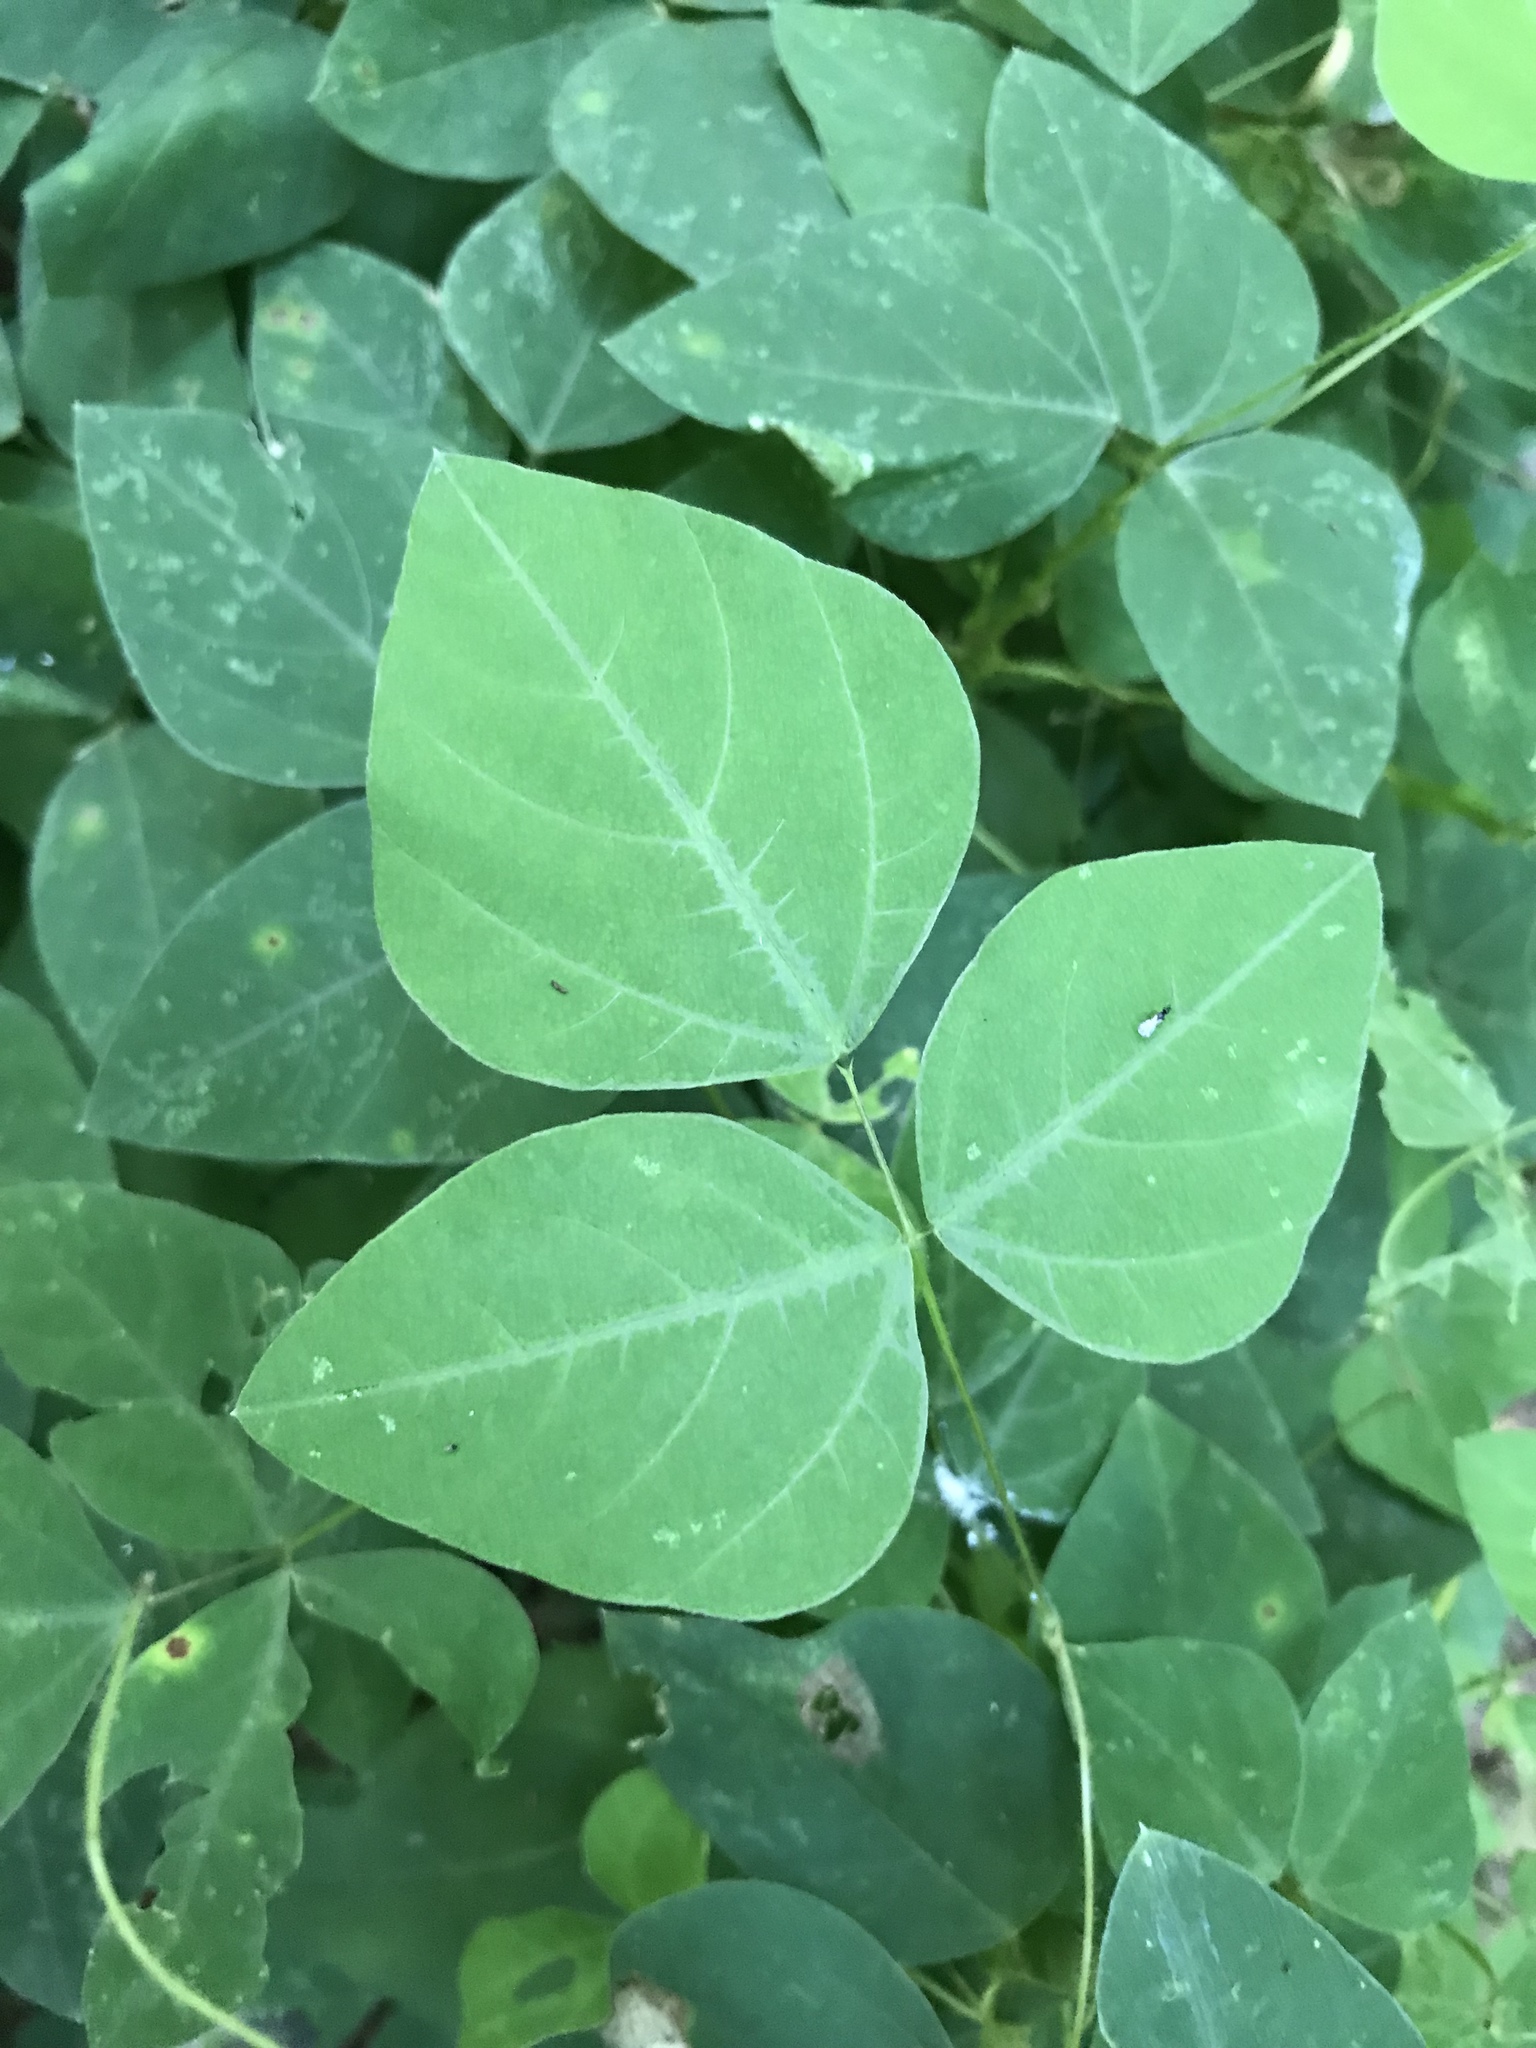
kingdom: Plantae
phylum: Tracheophyta
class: Magnoliopsida
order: Fabales
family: Fabaceae
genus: Amphicarpaea
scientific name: Amphicarpaea bracteata
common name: American hog peanut
